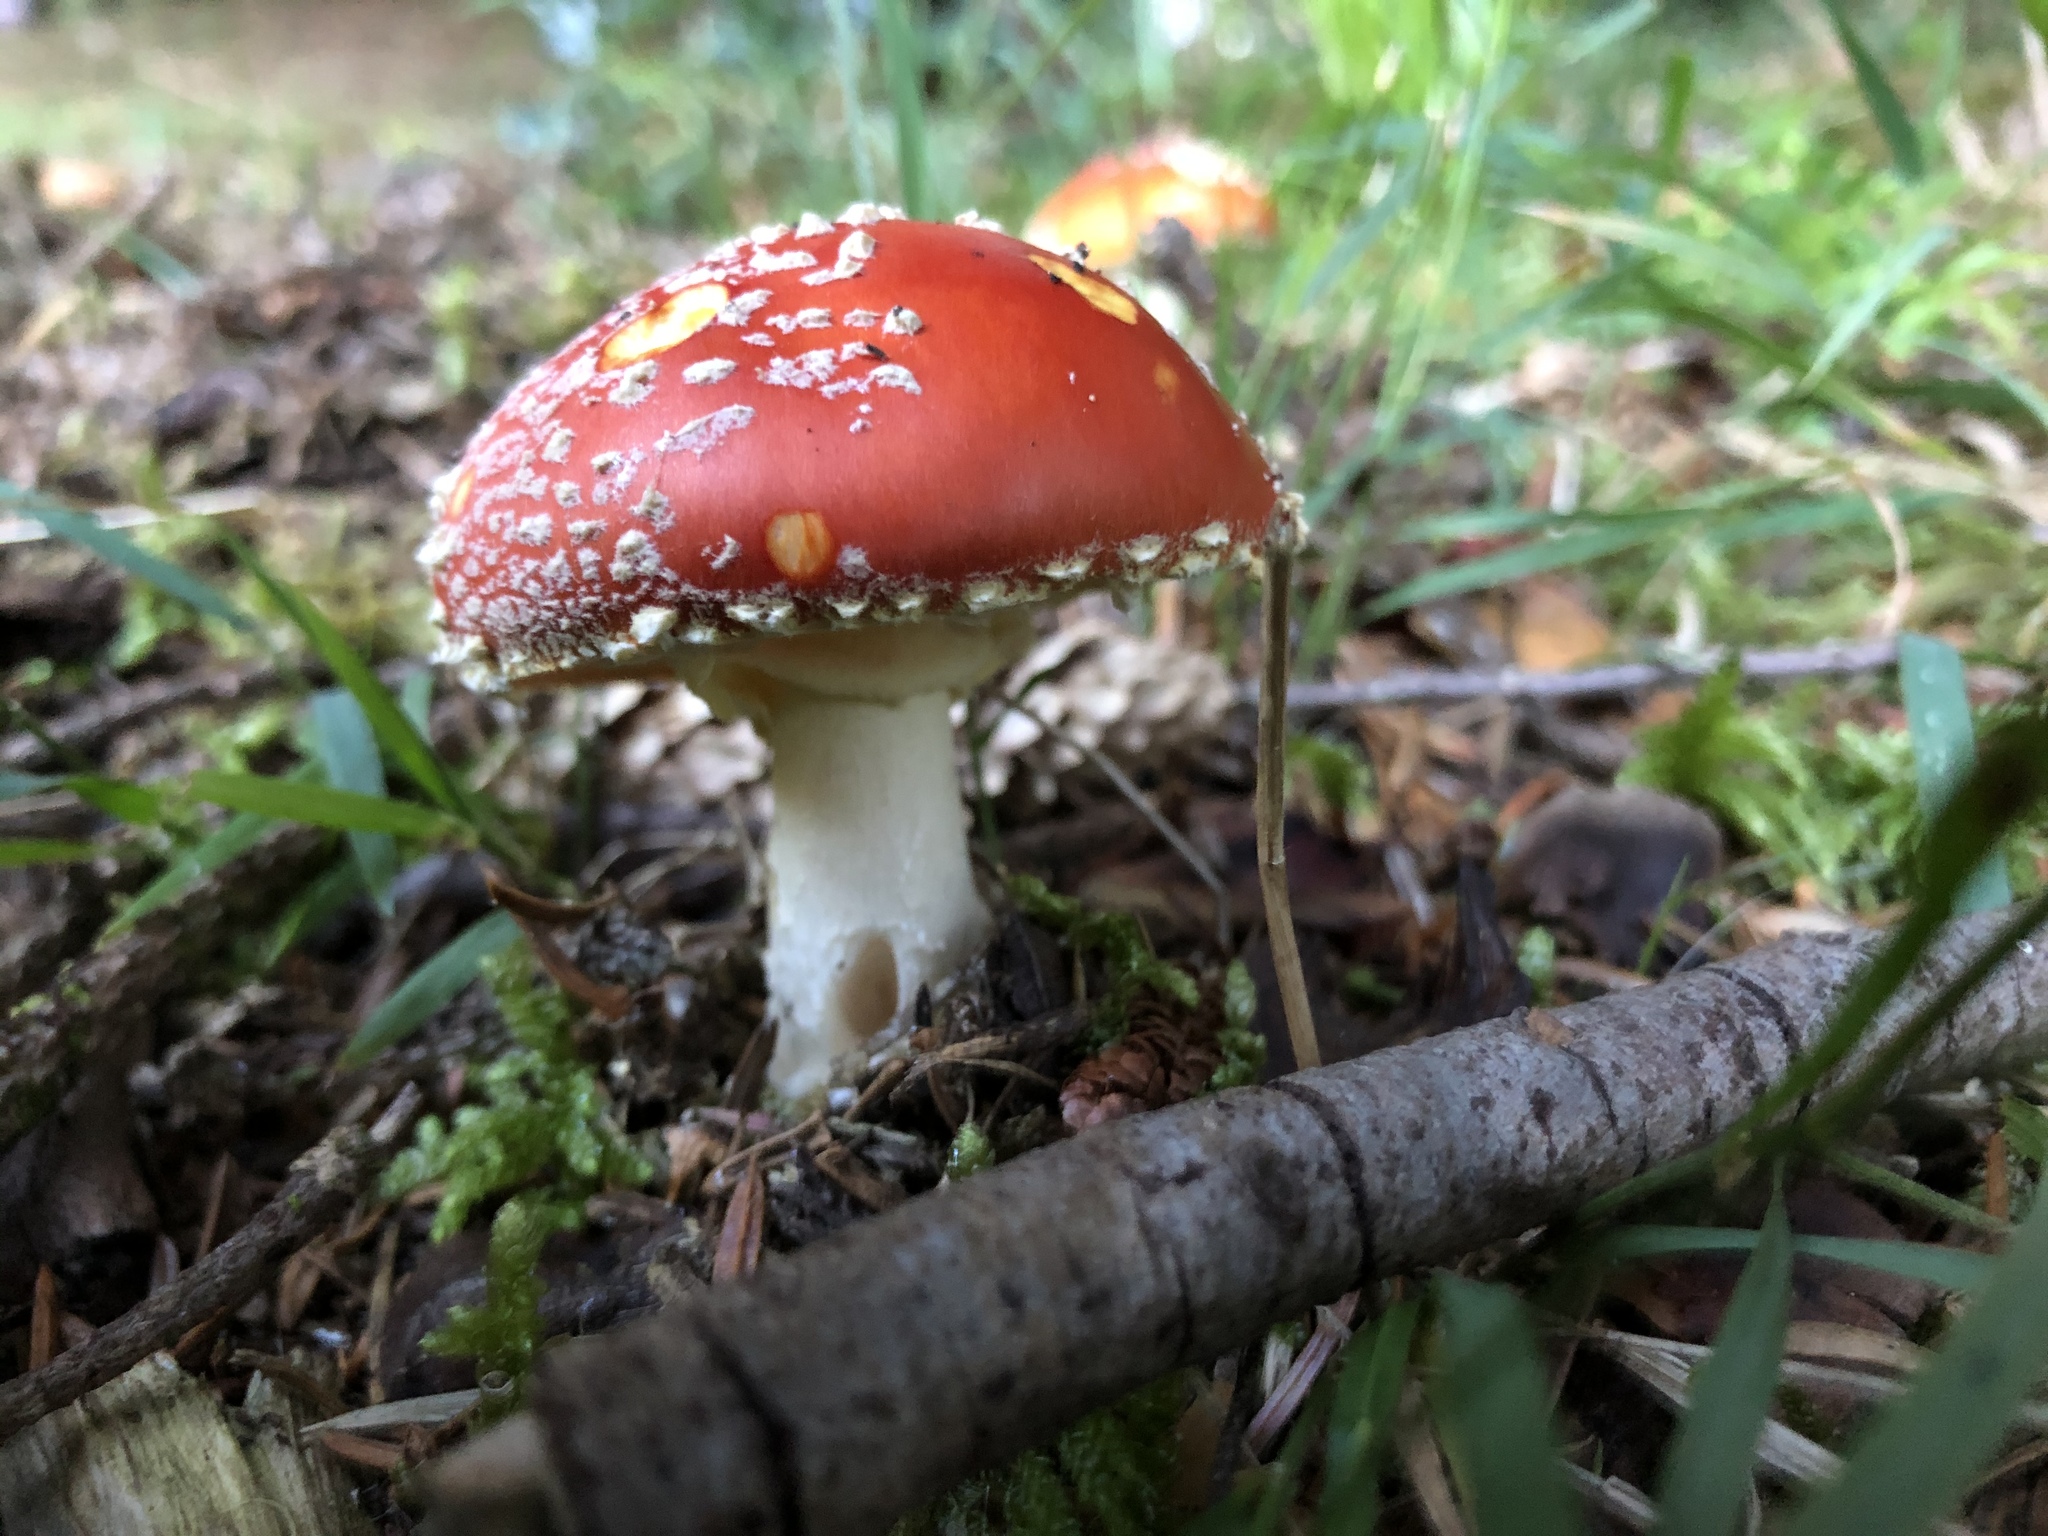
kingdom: Fungi
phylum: Basidiomycota
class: Agaricomycetes
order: Agaricales
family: Amanitaceae
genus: Amanita
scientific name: Amanita muscaria
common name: Fly agaric
